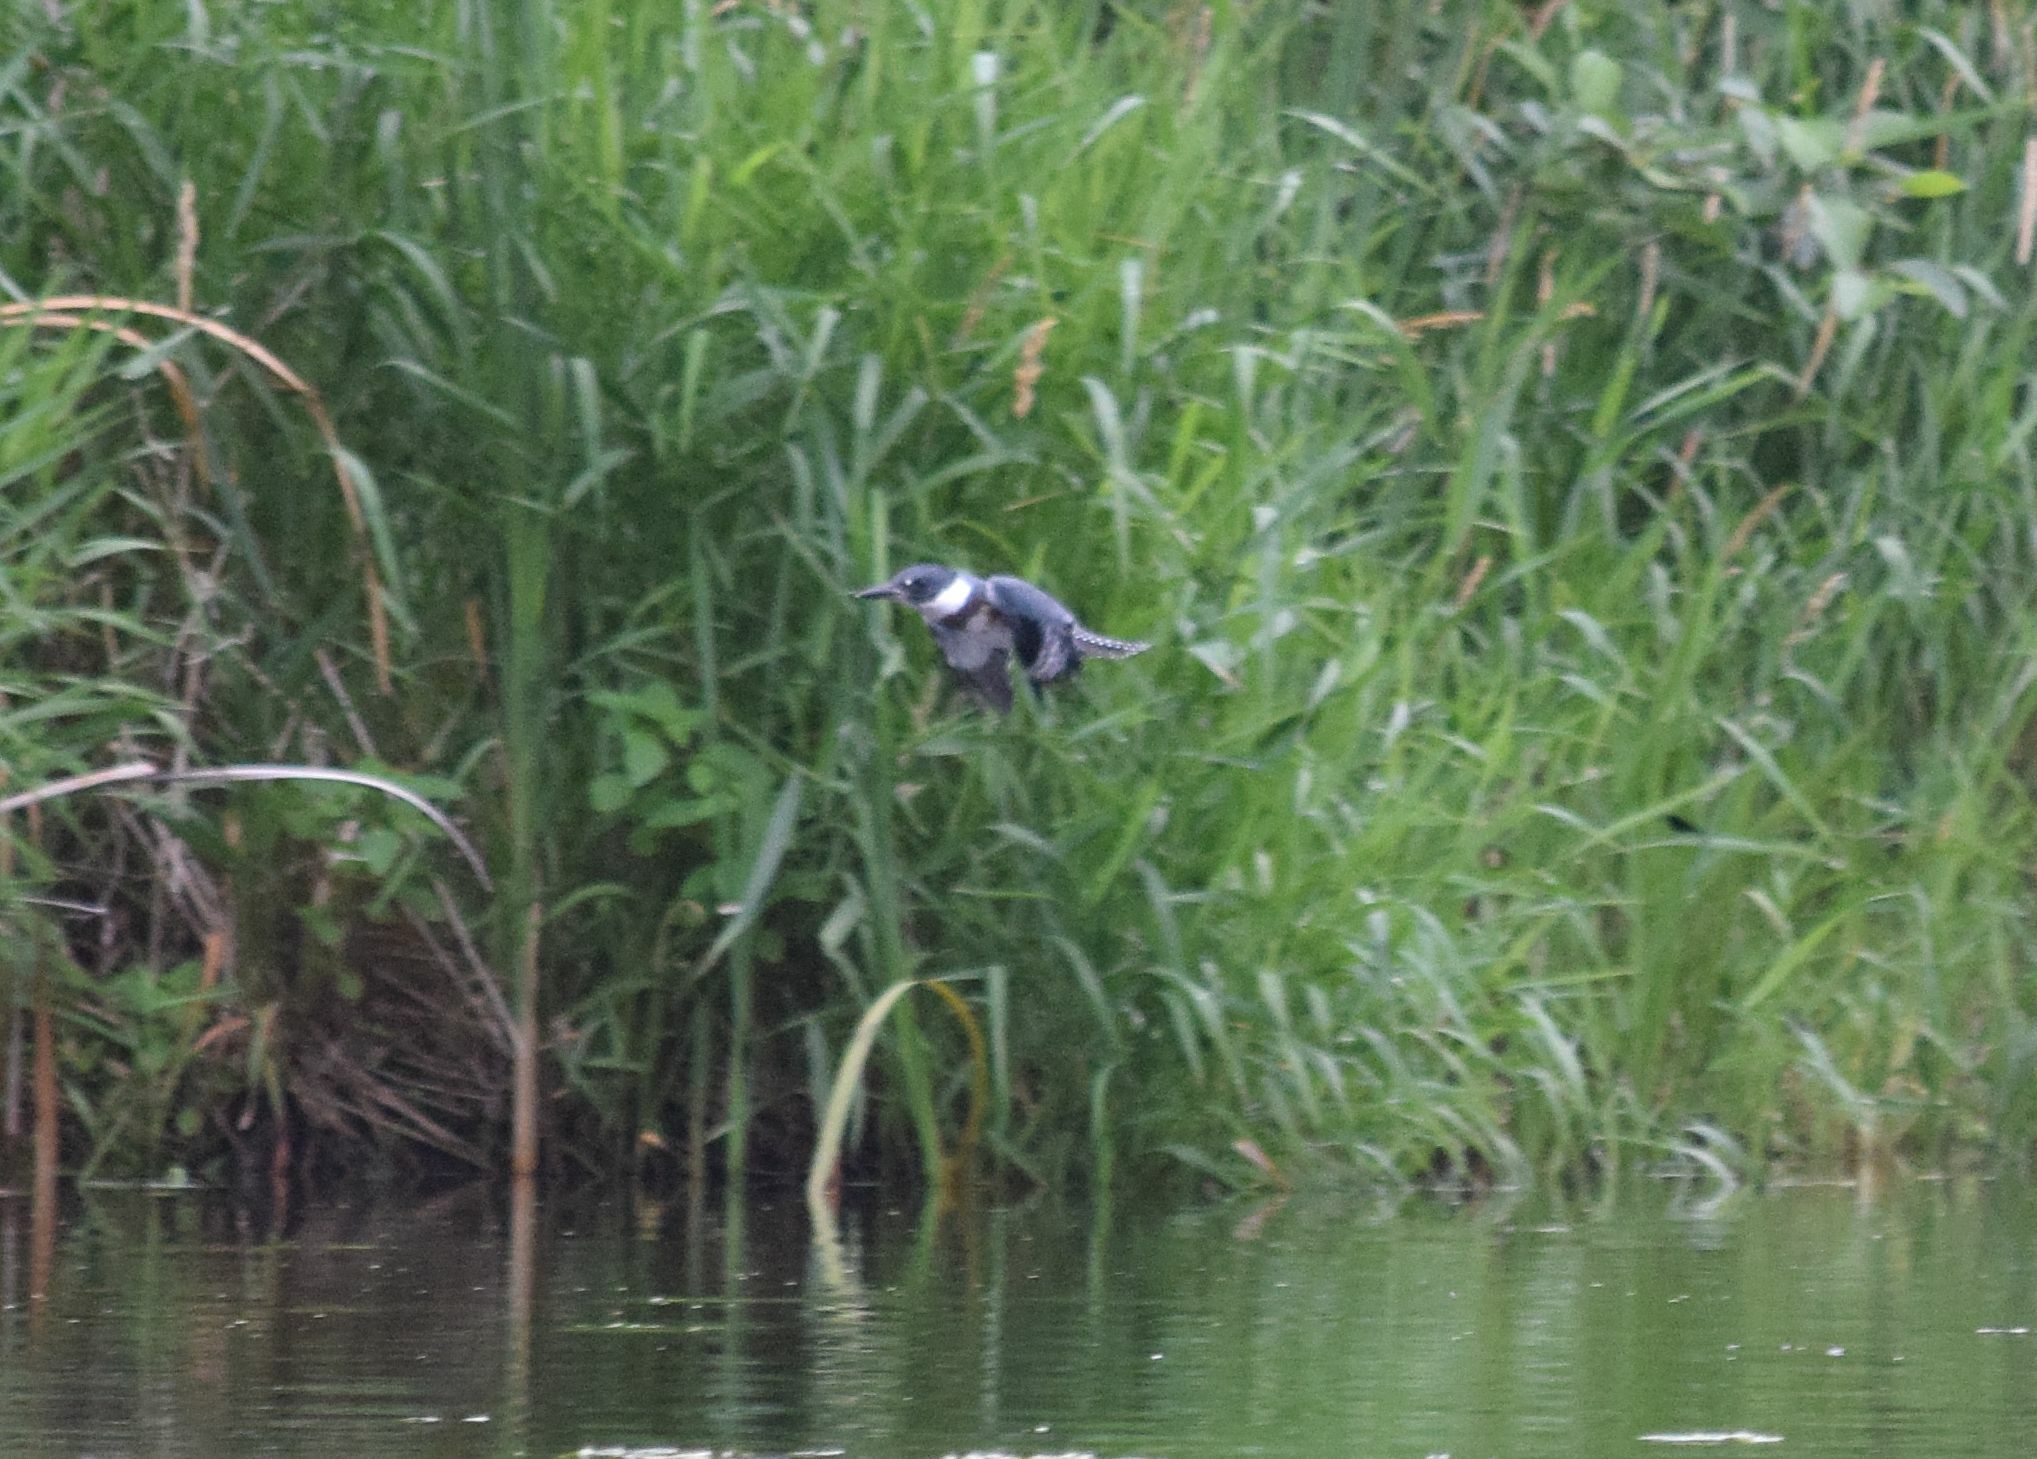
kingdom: Animalia
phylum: Chordata
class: Aves
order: Coraciiformes
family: Alcedinidae
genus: Megaceryle
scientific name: Megaceryle alcyon
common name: Belted kingfisher
